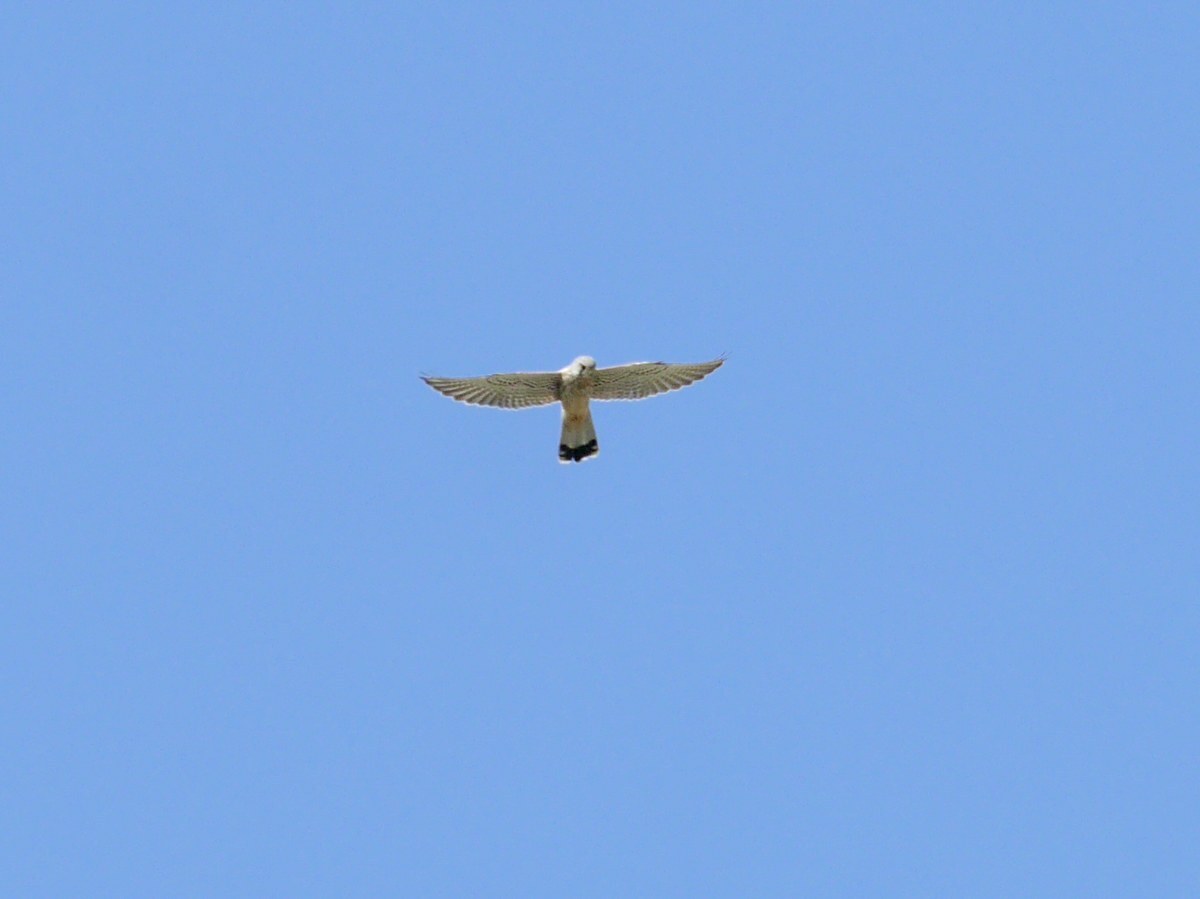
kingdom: Animalia
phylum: Chordata
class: Aves
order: Falconiformes
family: Falconidae
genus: Falco
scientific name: Falco tinnunculus
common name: Common kestrel
